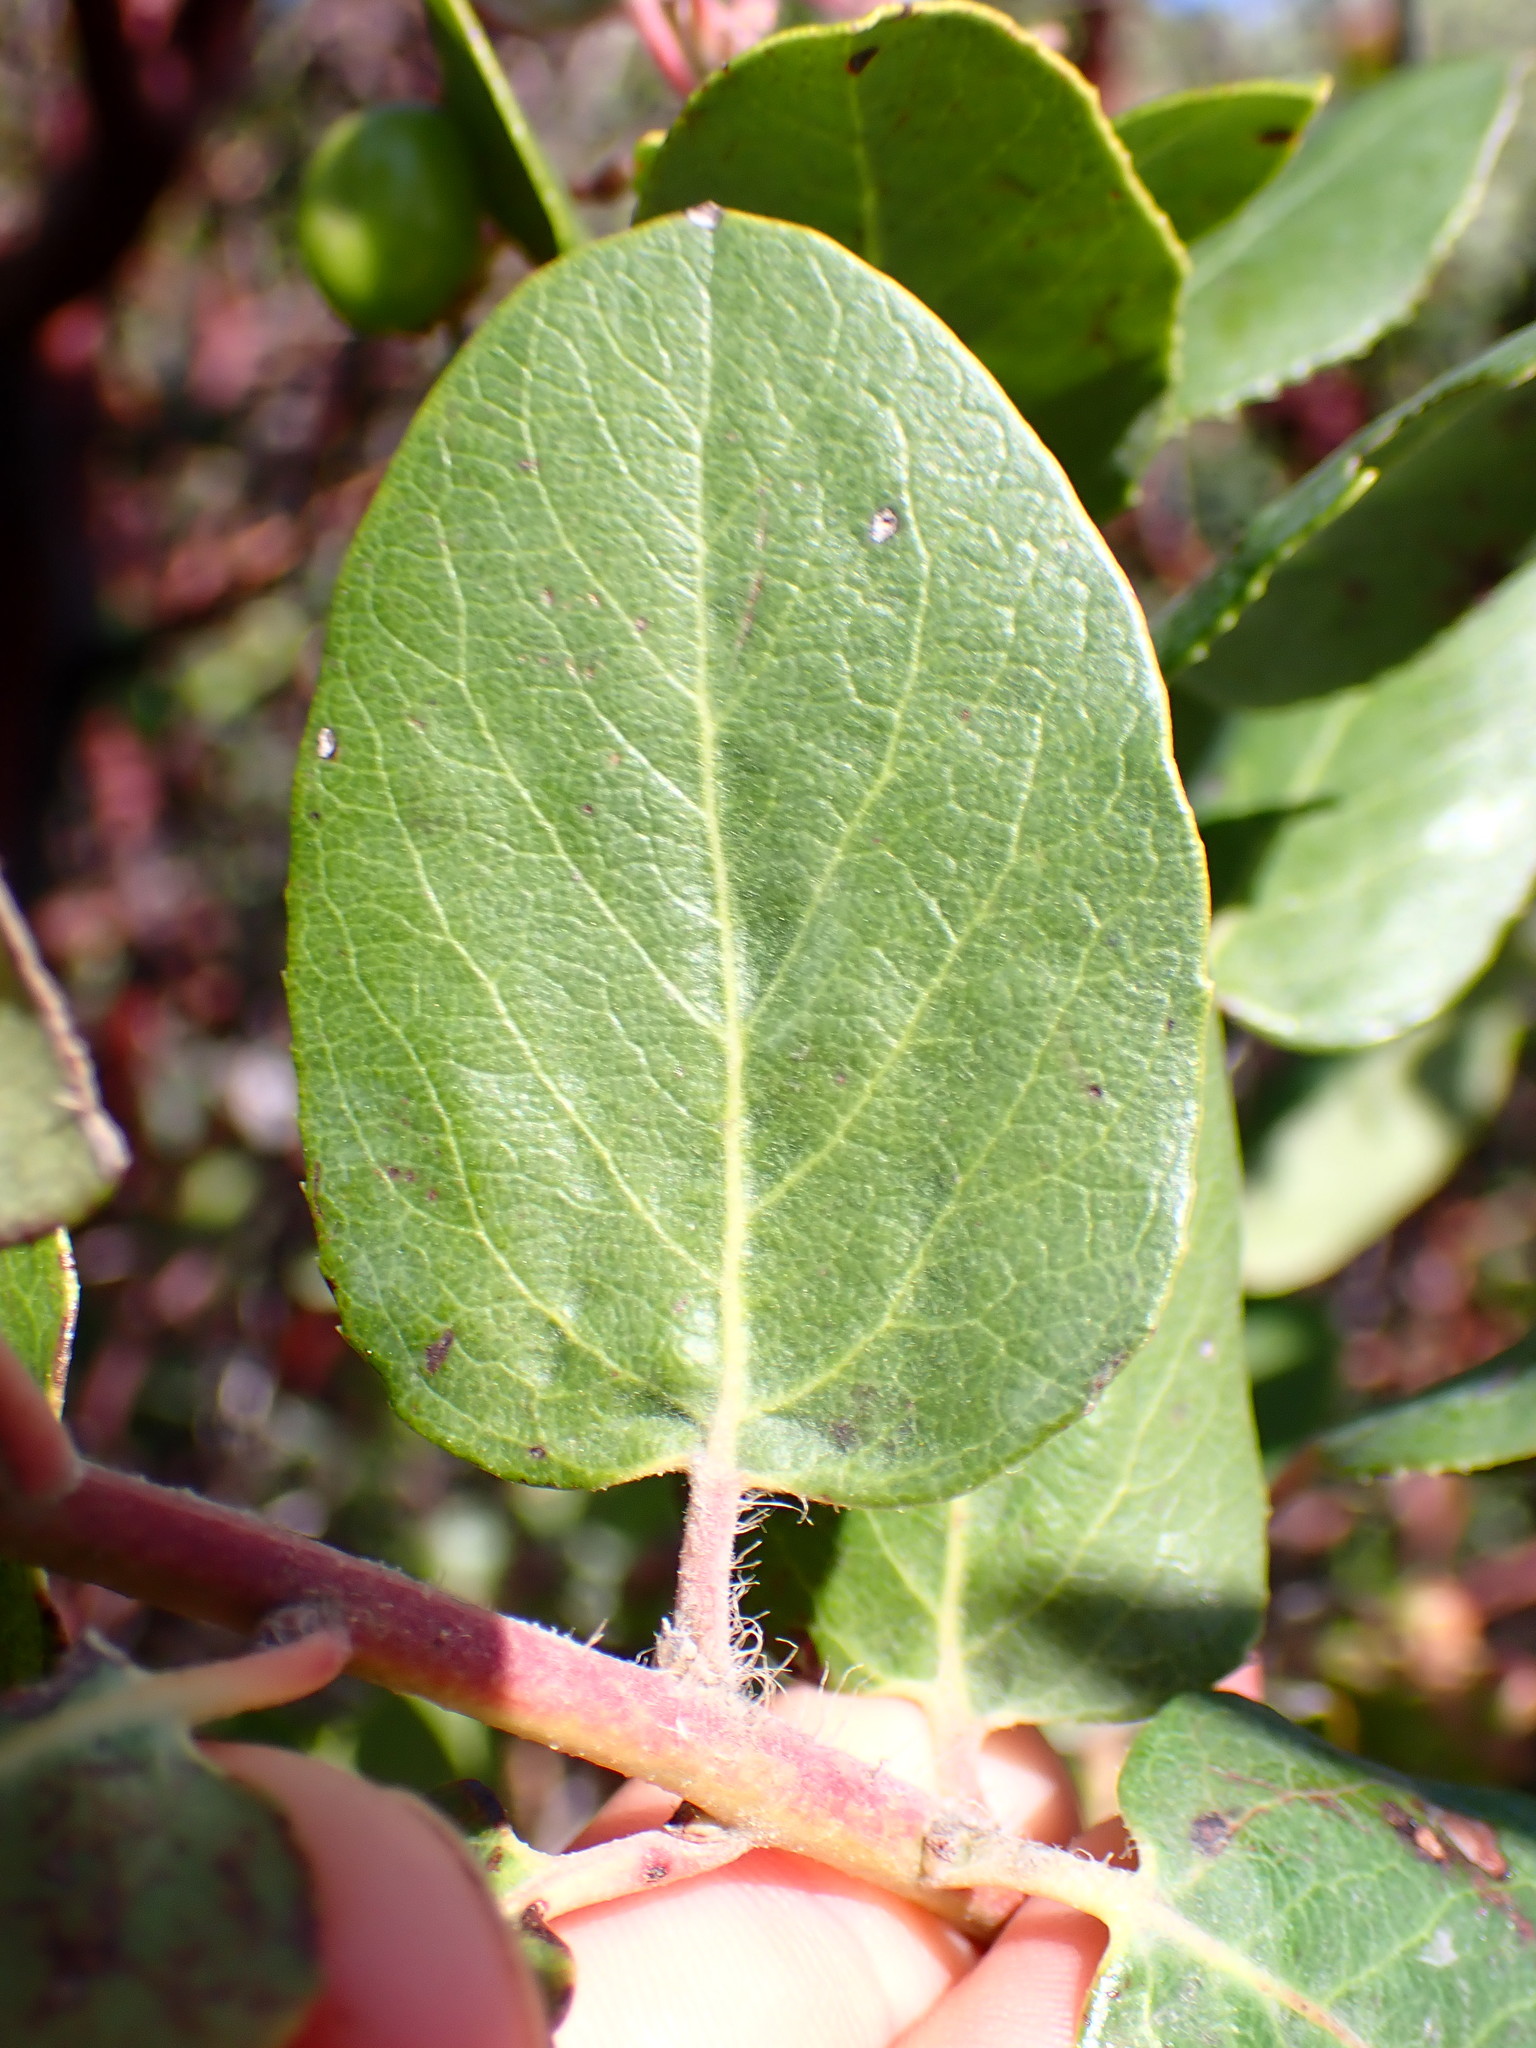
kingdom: Plantae
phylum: Tracheophyta
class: Magnoliopsida
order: Ericales
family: Ericaceae
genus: Arctostaphylos
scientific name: Arctostaphylos crustacea
